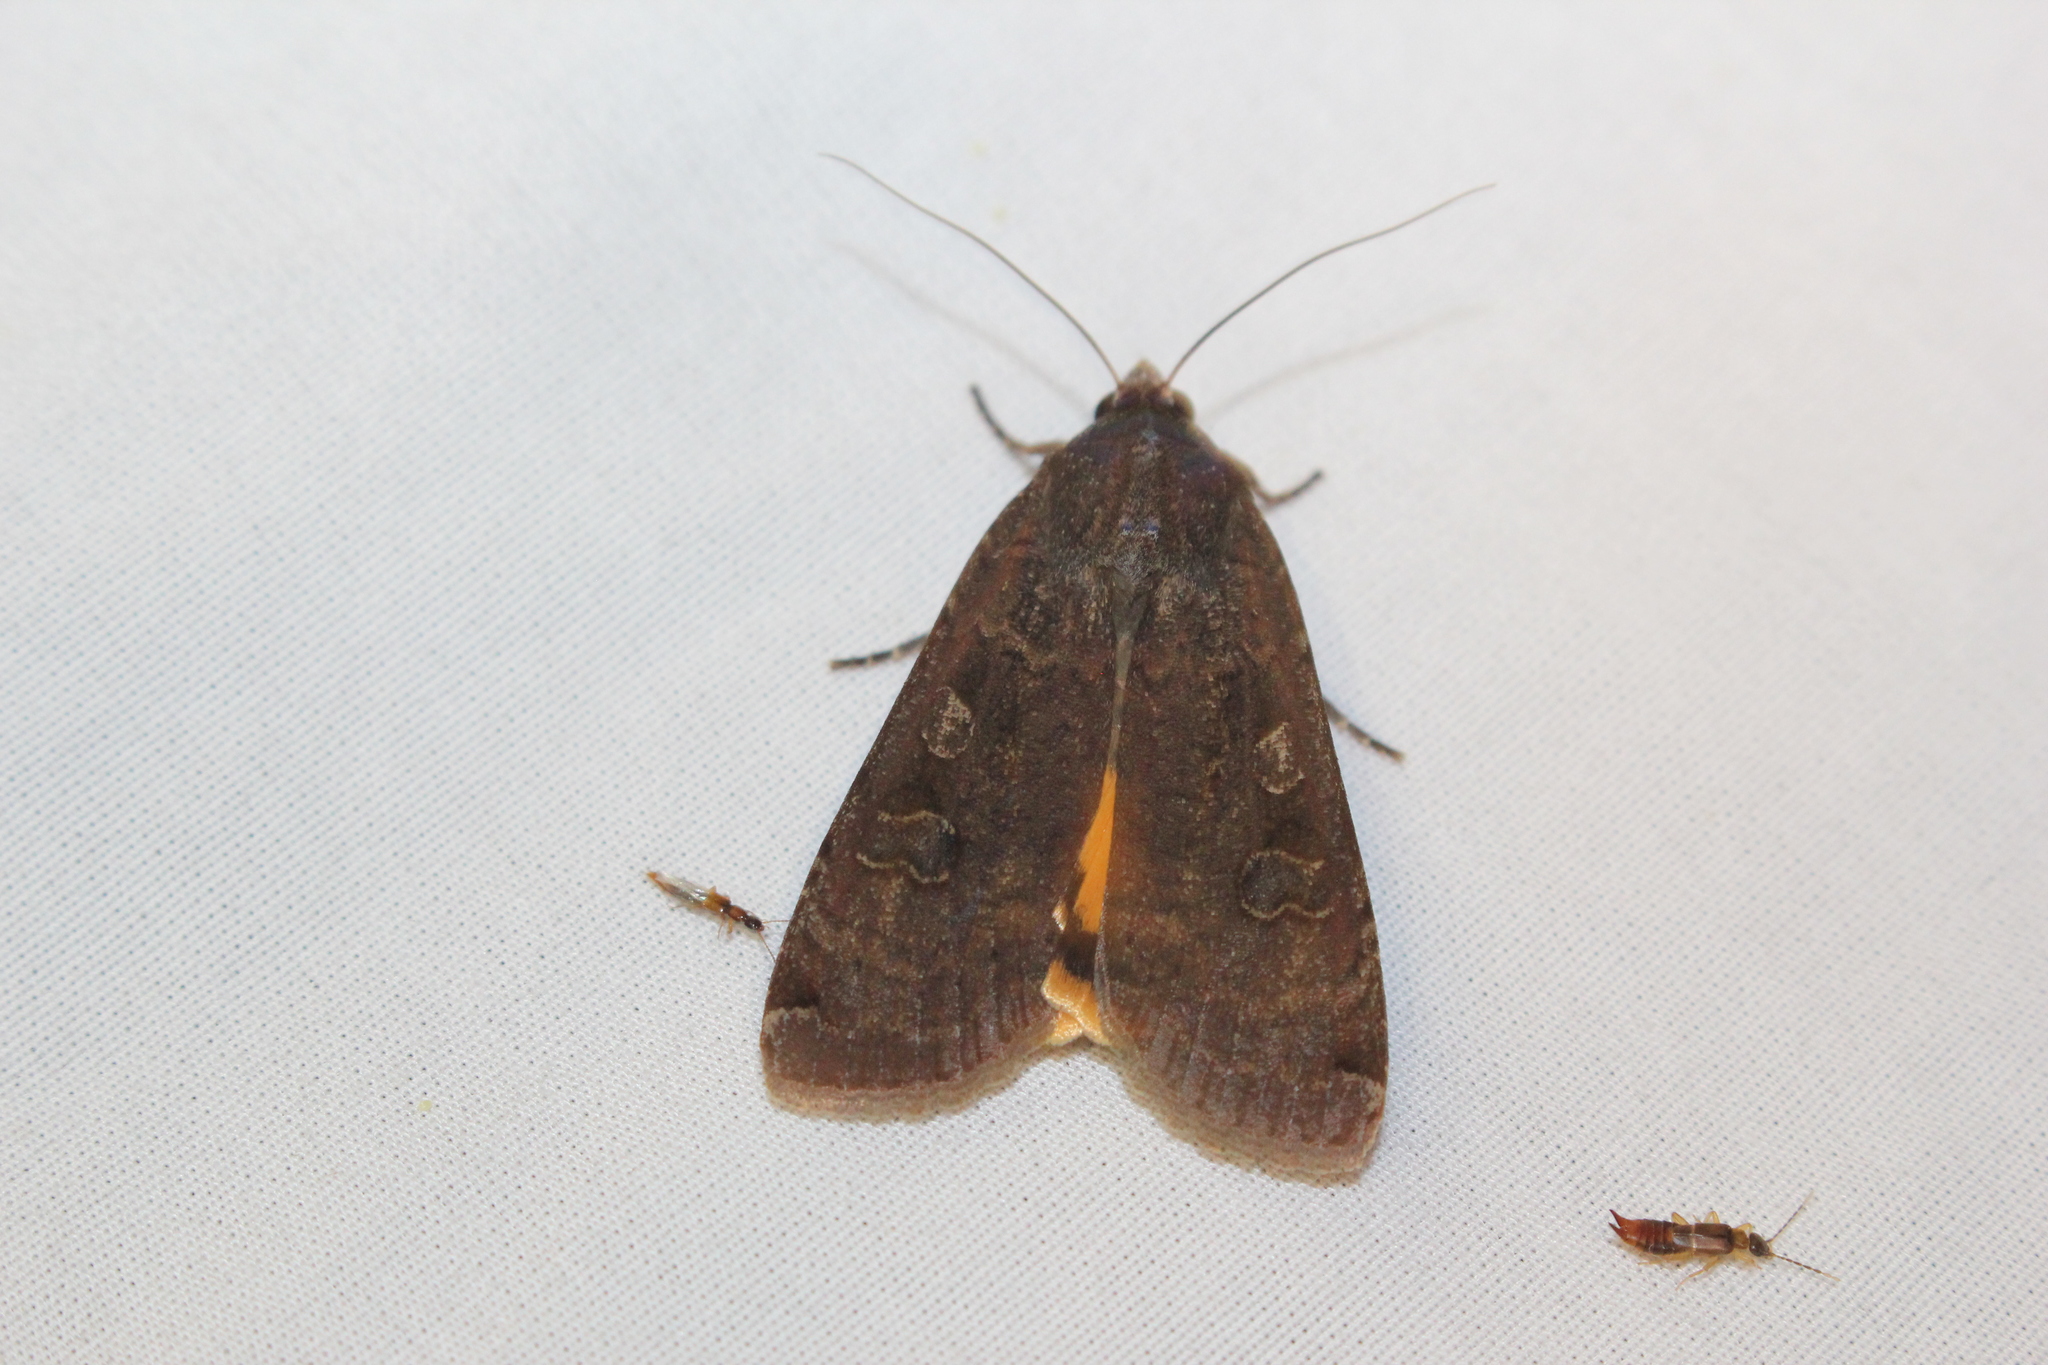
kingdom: Animalia
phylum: Arthropoda
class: Insecta
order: Lepidoptera
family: Noctuidae
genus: Noctua
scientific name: Noctua pronuba
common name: Large yellow underwing
